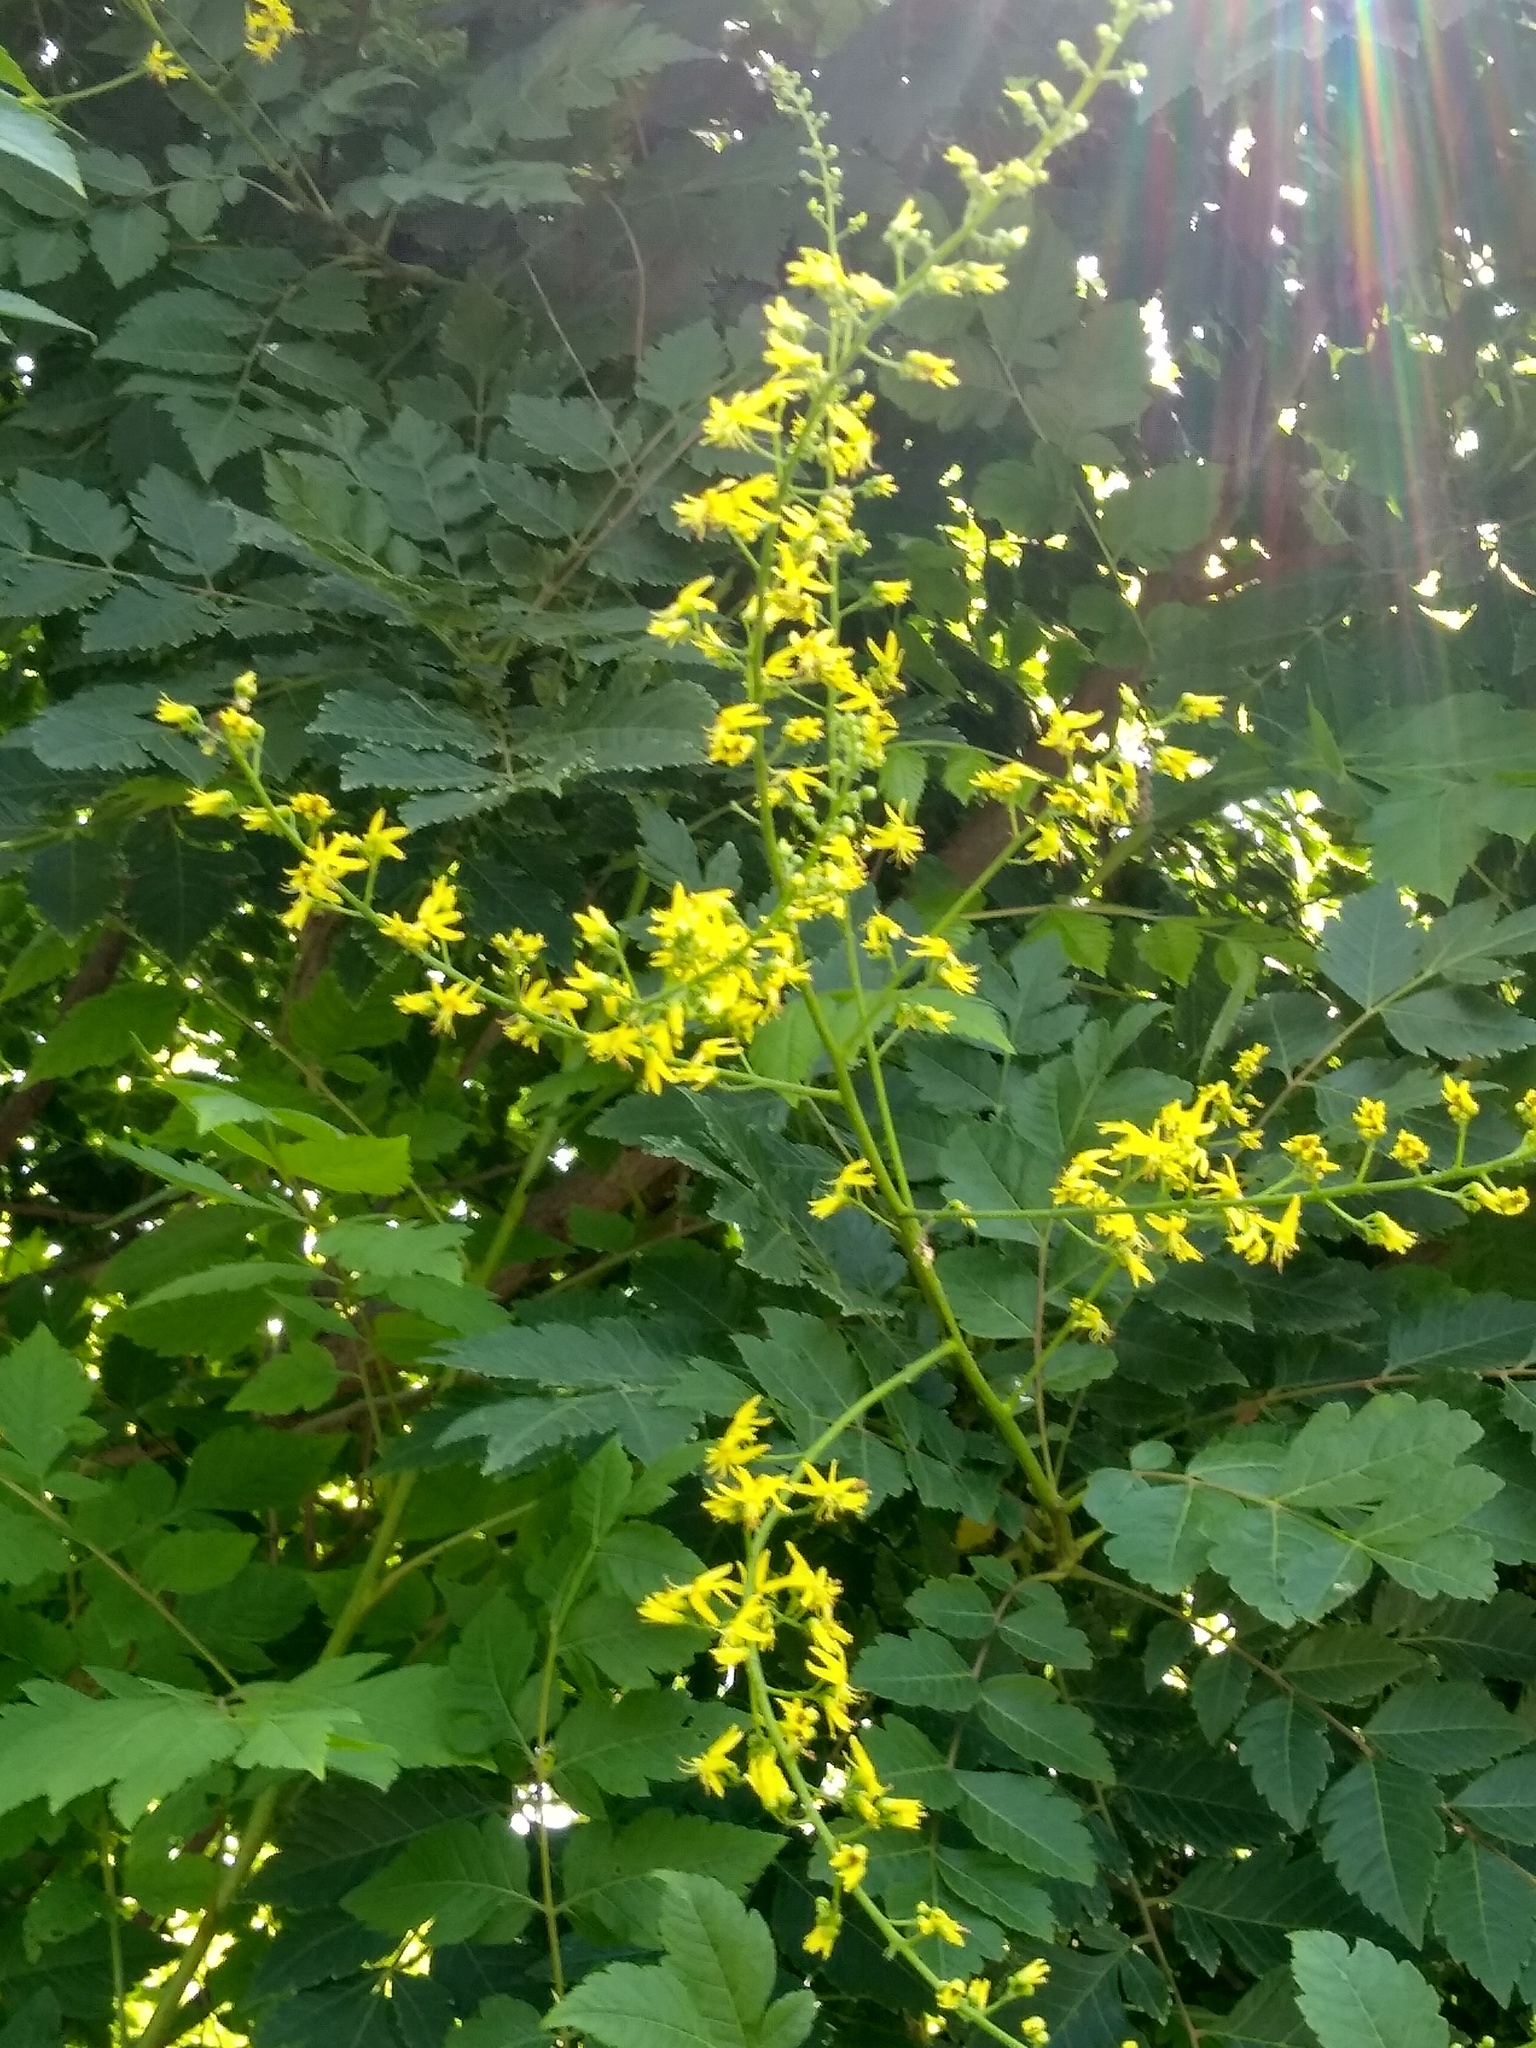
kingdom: Plantae
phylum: Tracheophyta
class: Magnoliopsida
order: Sapindales
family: Sapindaceae
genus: Koelreuteria
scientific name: Koelreuteria paniculata
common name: Pride-of-india
